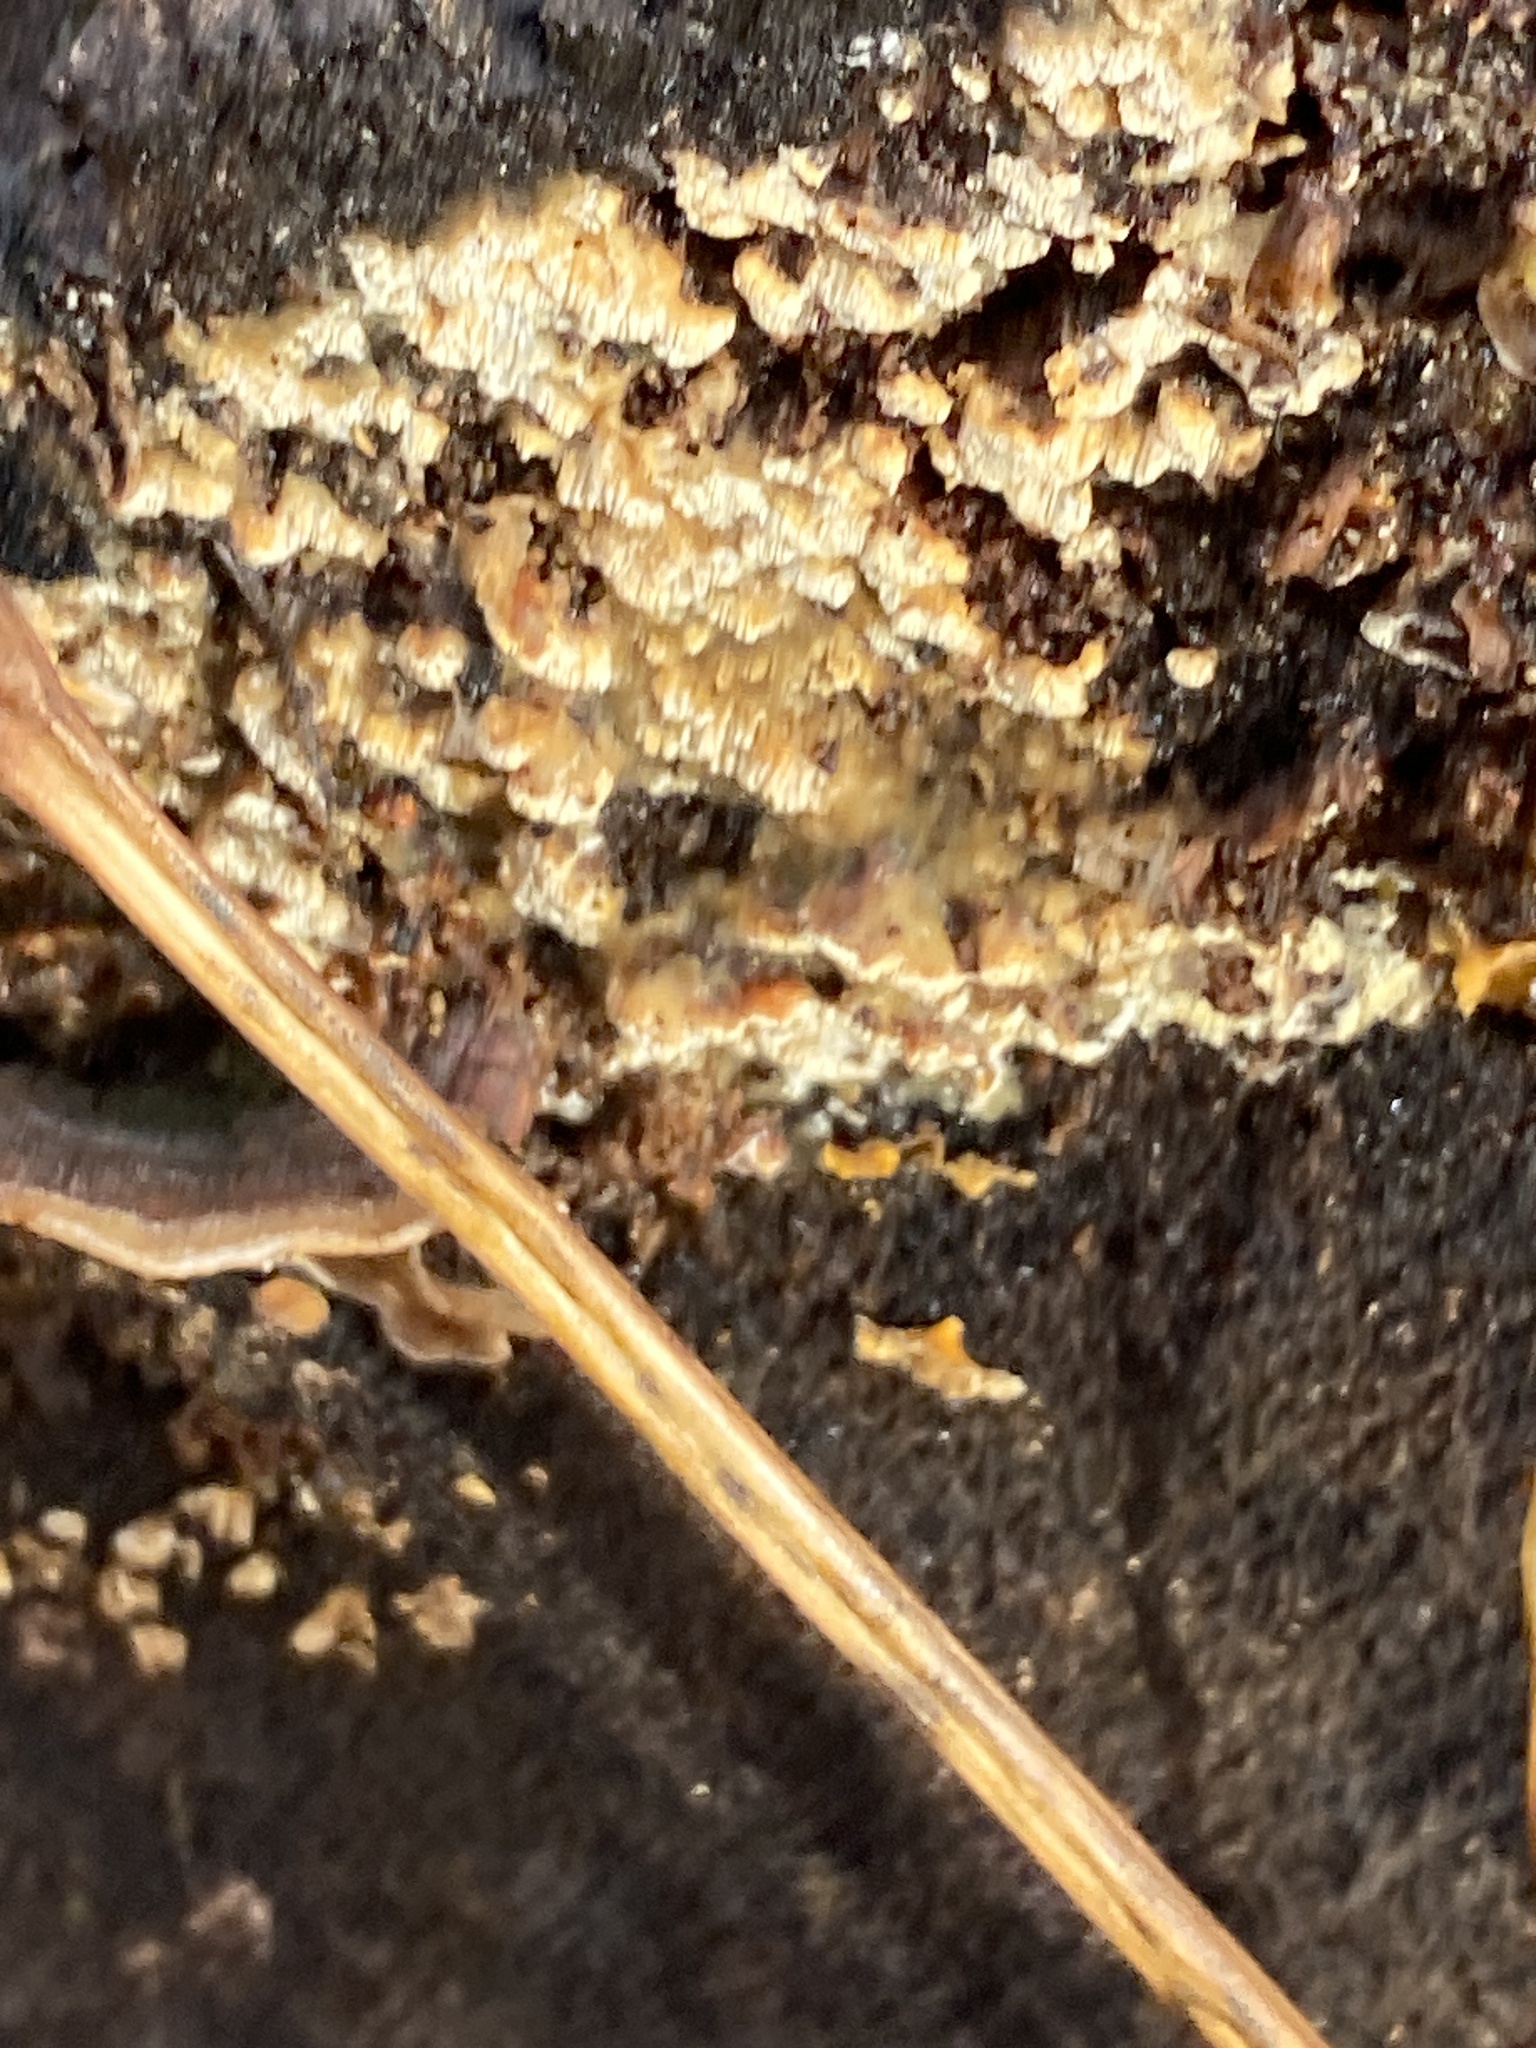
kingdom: Fungi
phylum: Basidiomycota
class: Agaricomycetes
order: Polyporales
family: Irpicaceae
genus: Trametopsis
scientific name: Trametopsis cervina
